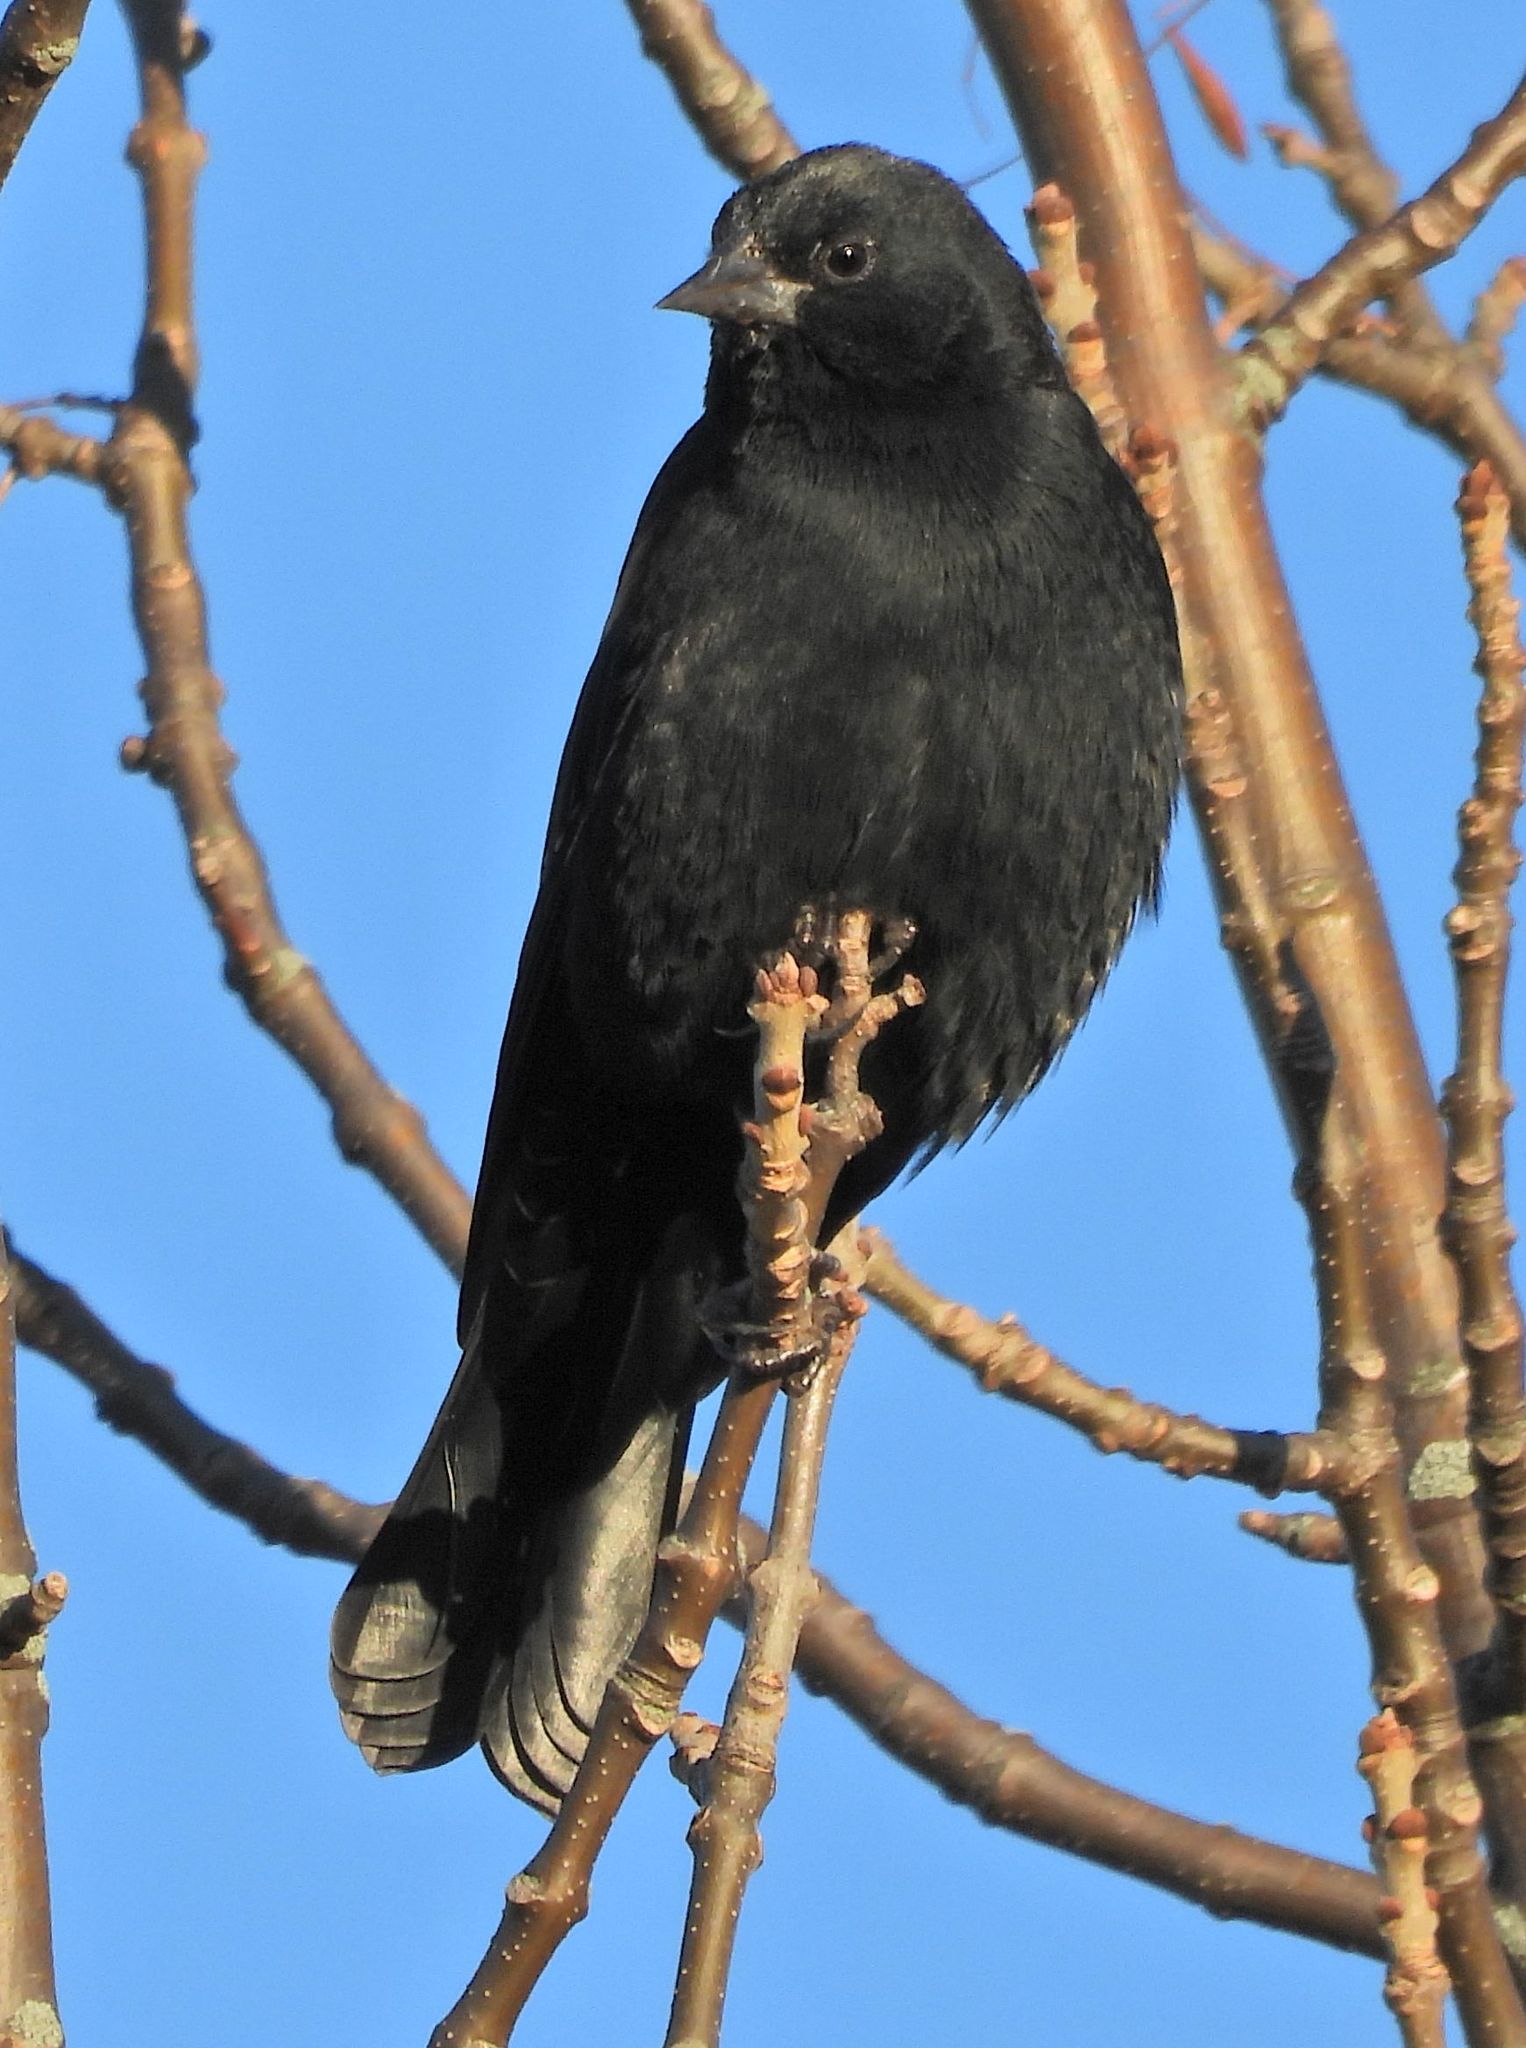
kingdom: Animalia
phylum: Chordata
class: Aves
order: Passeriformes
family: Icteridae
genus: Agelaius
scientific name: Agelaius phoeniceus
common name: Red-winged blackbird
